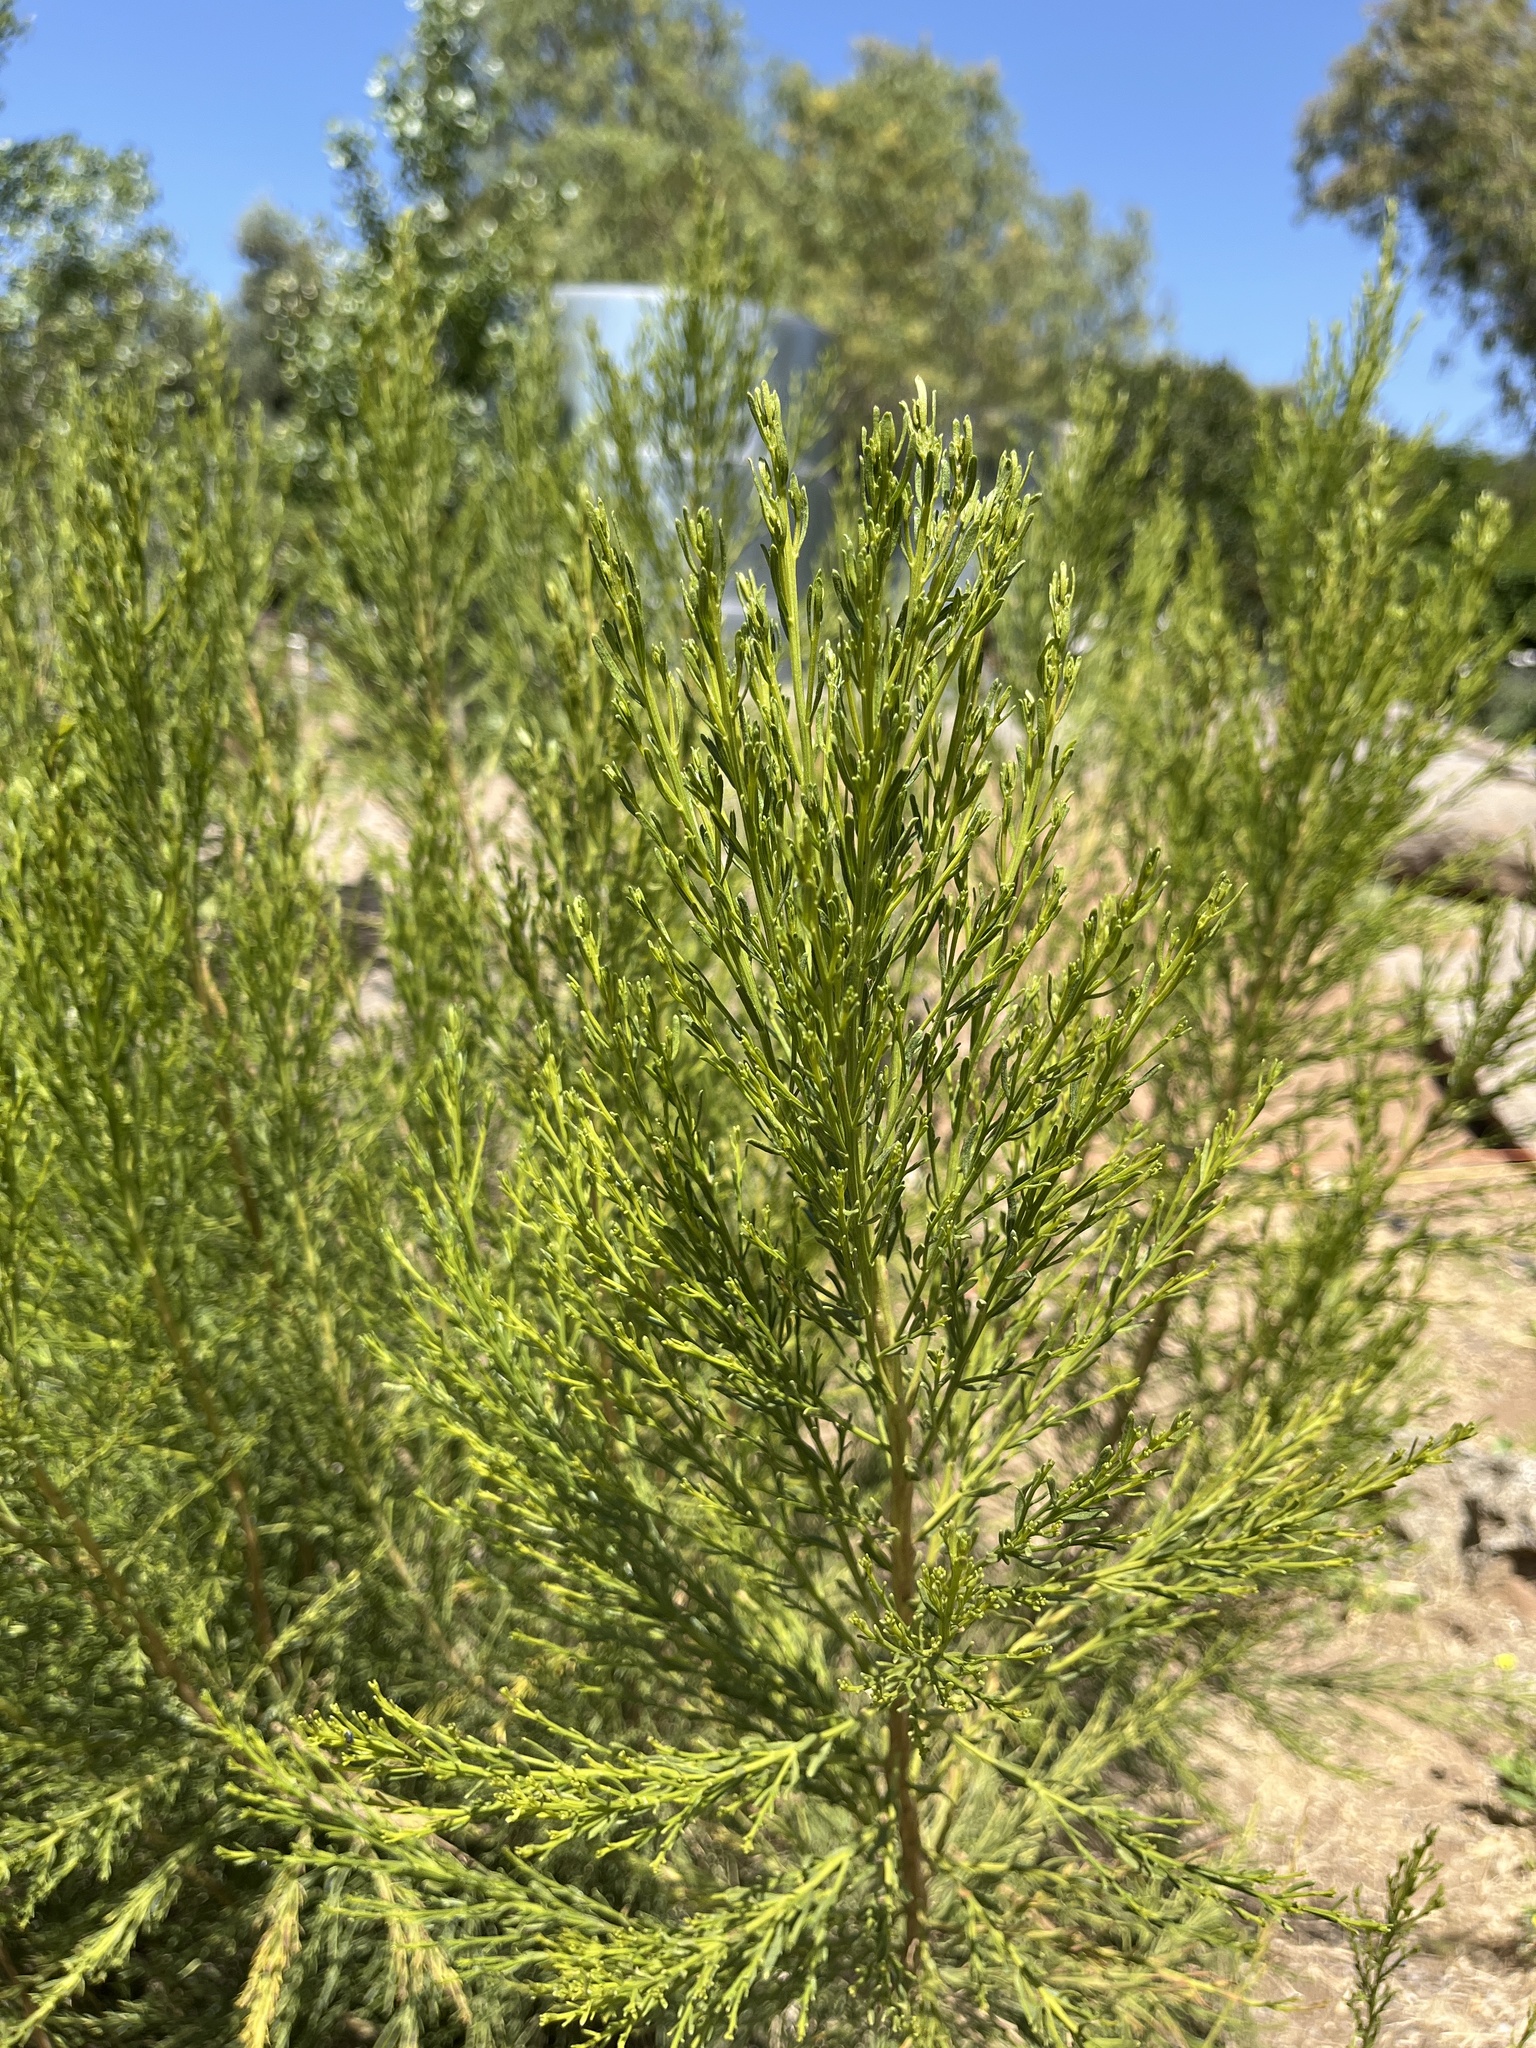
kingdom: Plantae
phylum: Tracheophyta
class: Magnoliopsida
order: Asterales
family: Asteraceae
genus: Baccharis
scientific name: Baccharis sarothroides
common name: Desert-broom
